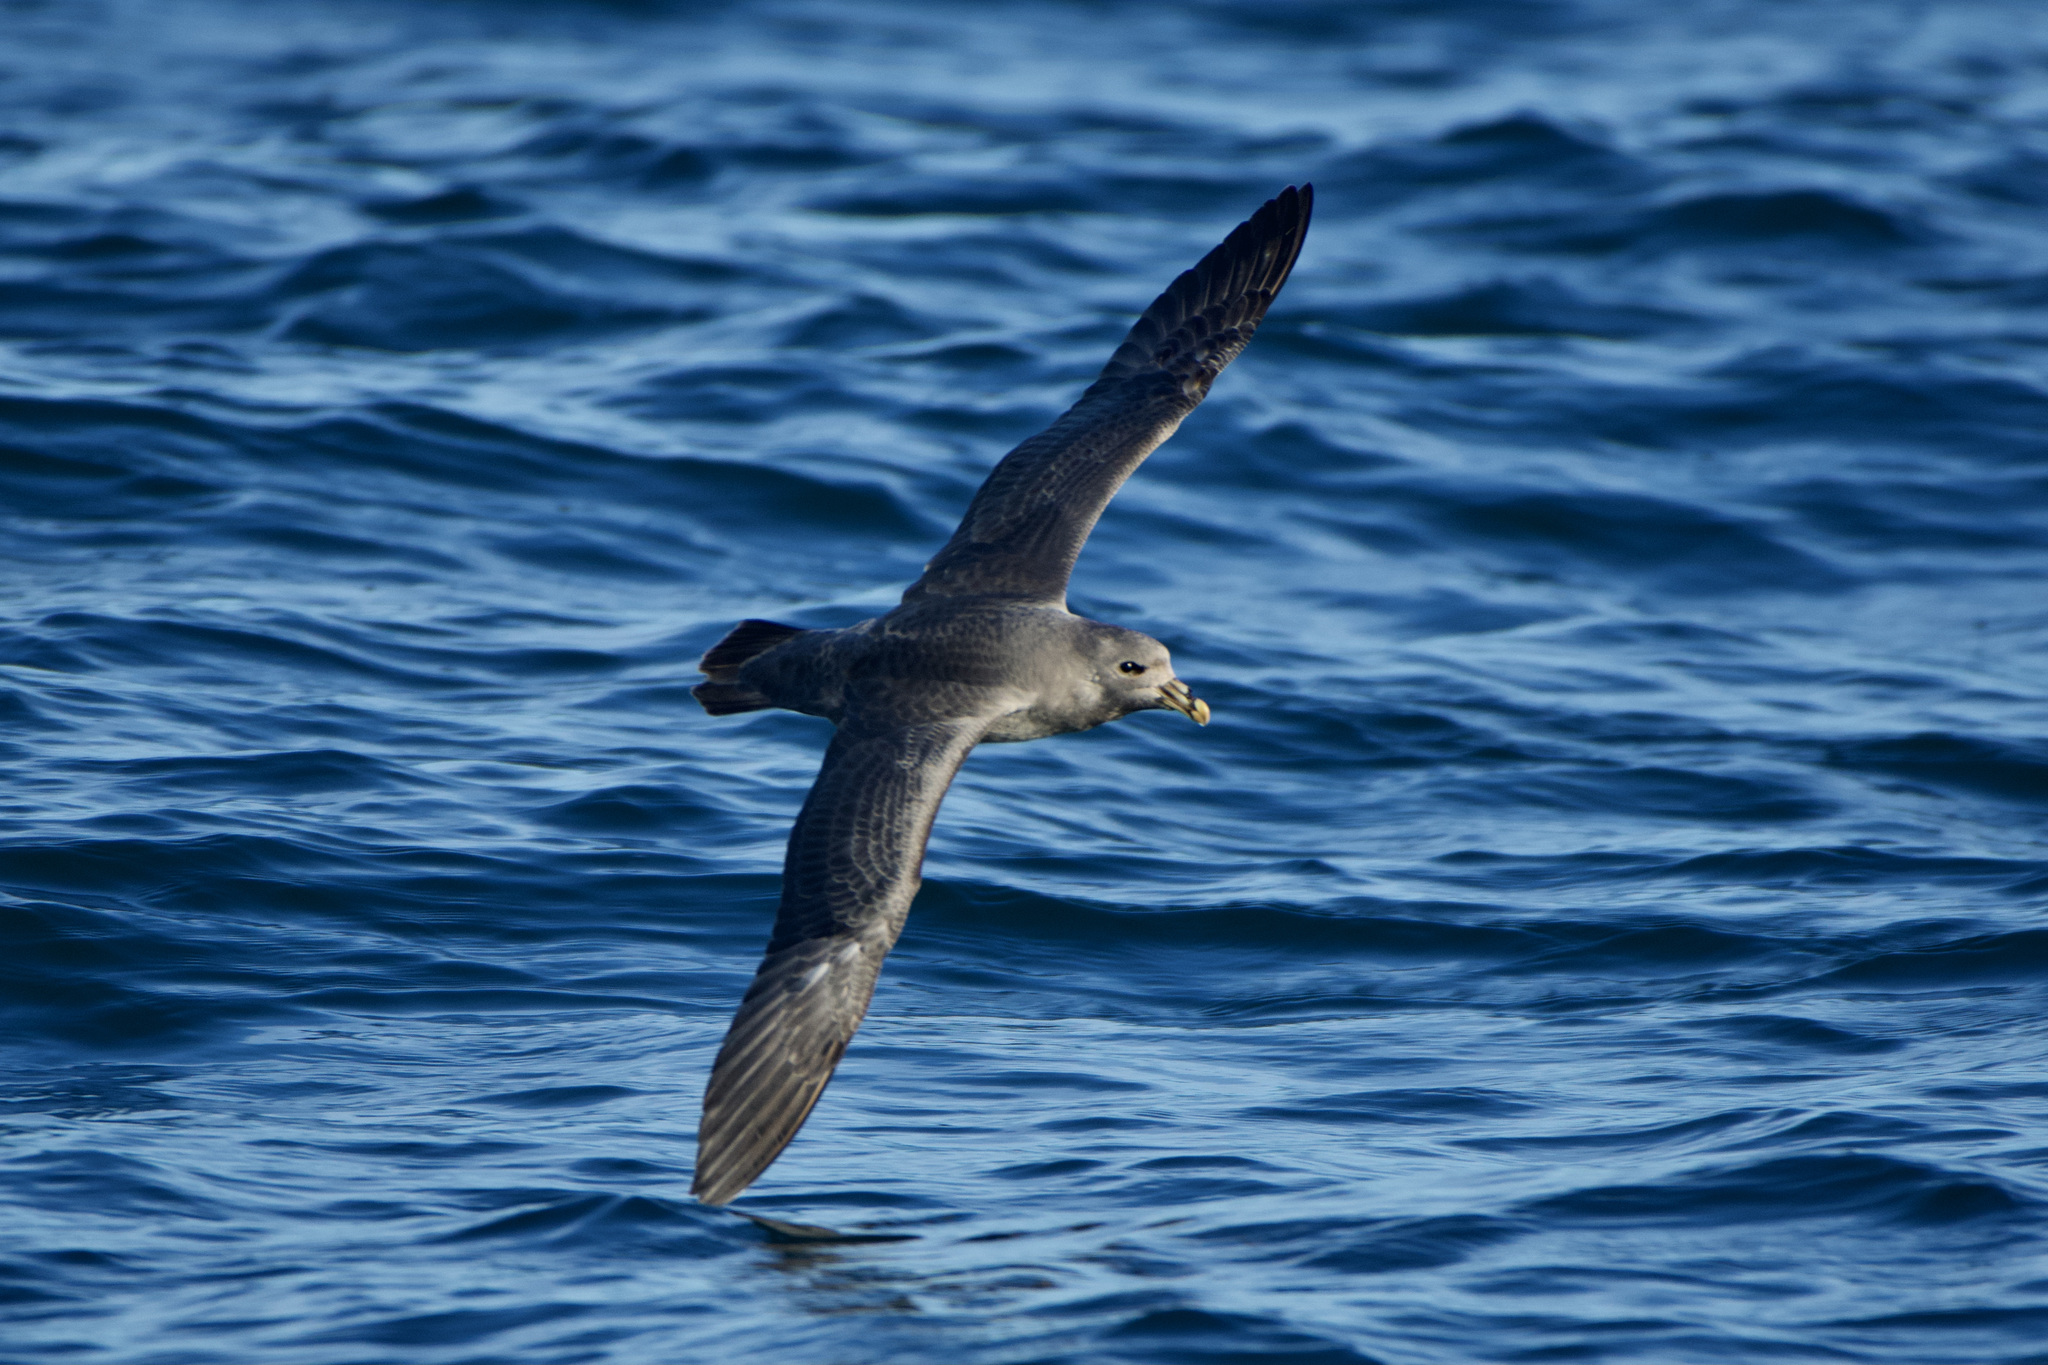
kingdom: Animalia
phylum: Chordata
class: Aves
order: Procellariiformes
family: Procellariidae
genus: Fulmarus
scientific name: Fulmarus glacialis
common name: Northern fulmar
